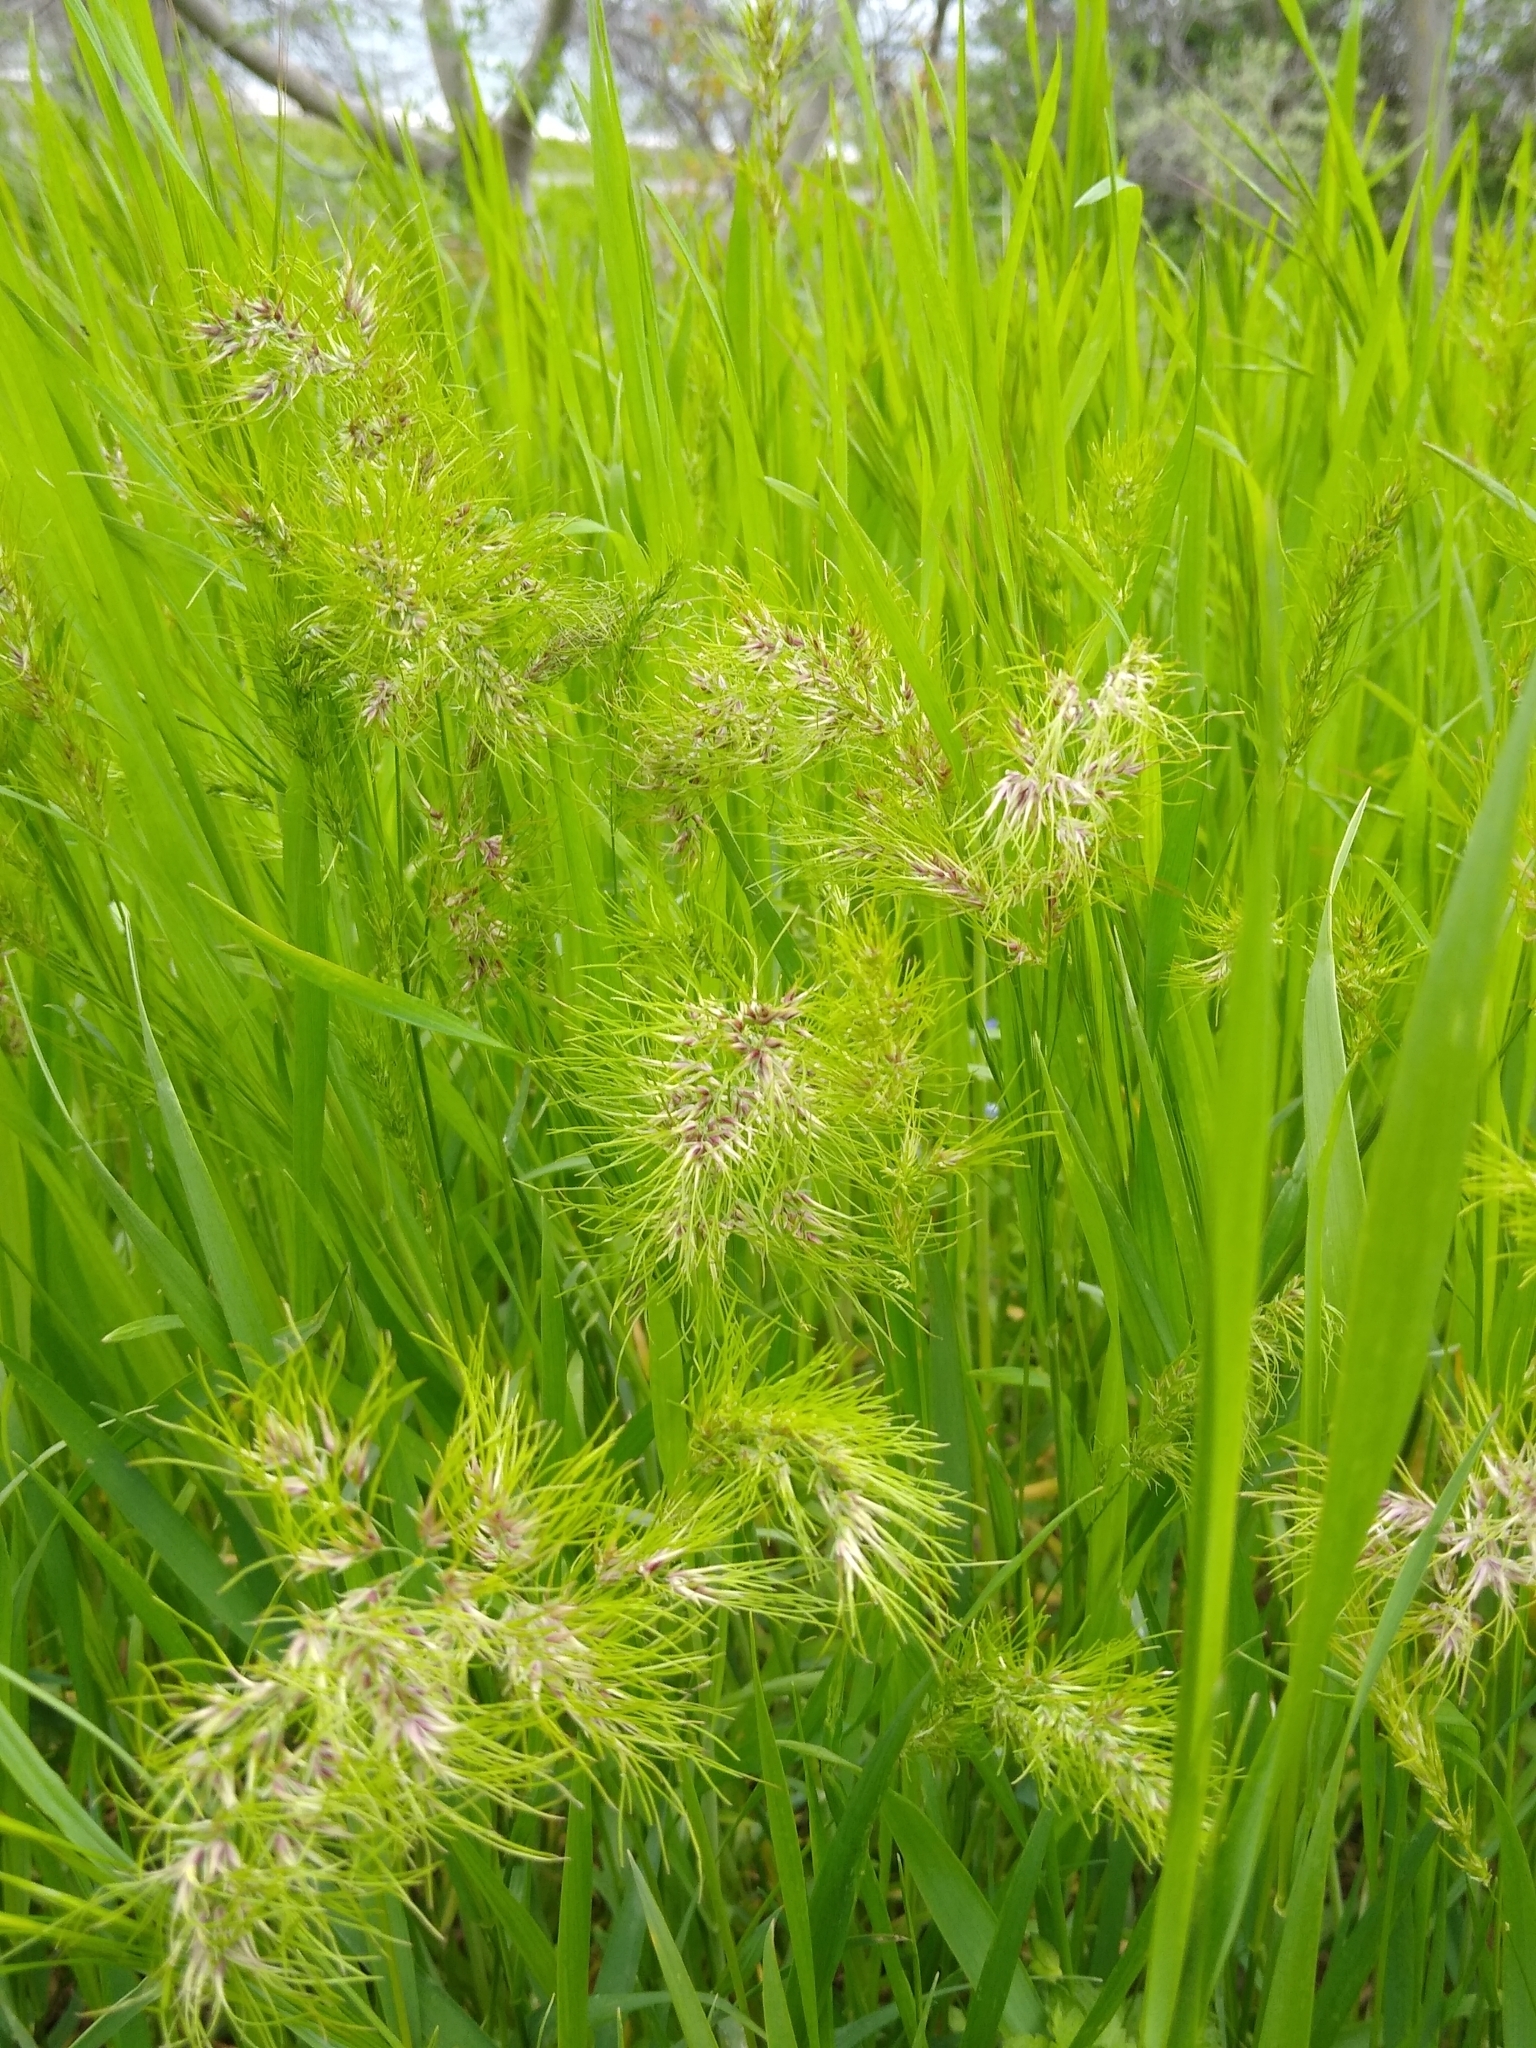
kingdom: Plantae
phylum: Tracheophyta
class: Liliopsida
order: Poales
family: Poaceae
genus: Poa
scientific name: Poa bulbosa
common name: Bulbous bluegrass
